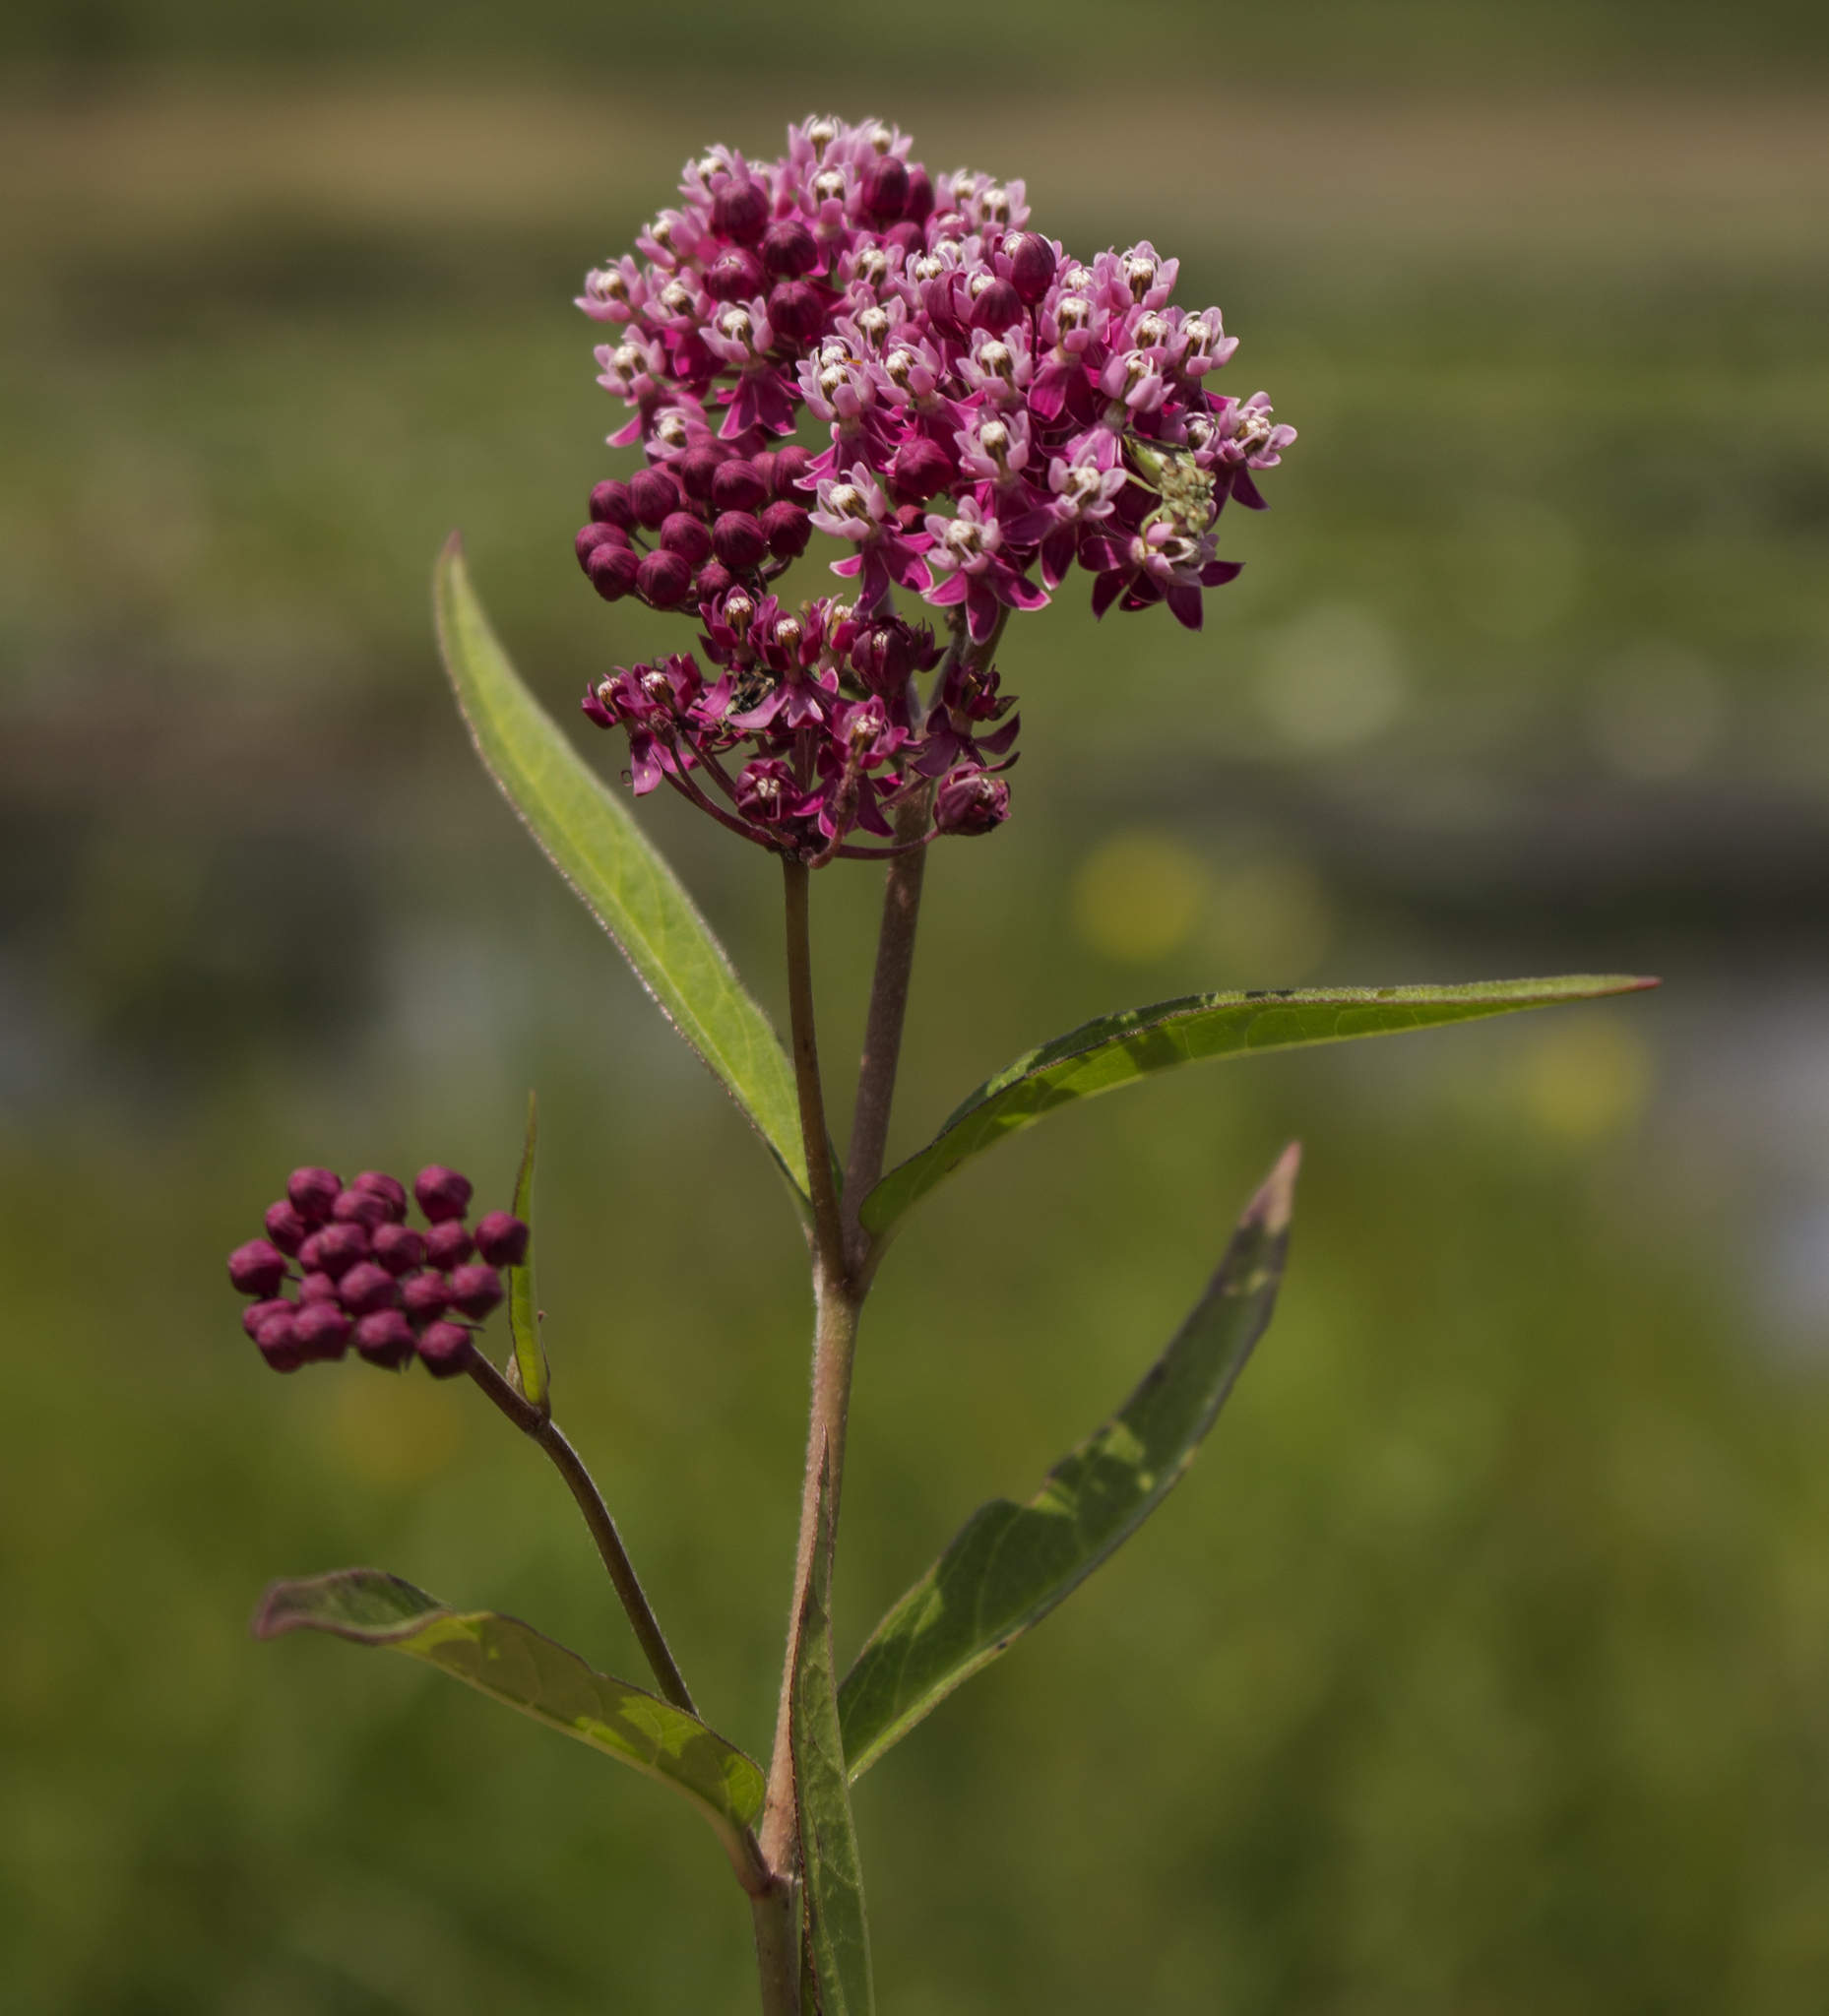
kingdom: Plantae
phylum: Tracheophyta
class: Magnoliopsida
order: Gentianales
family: Apocynaceae
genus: Asclepias
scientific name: Asclepias incarnata
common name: Swamp milkweed
